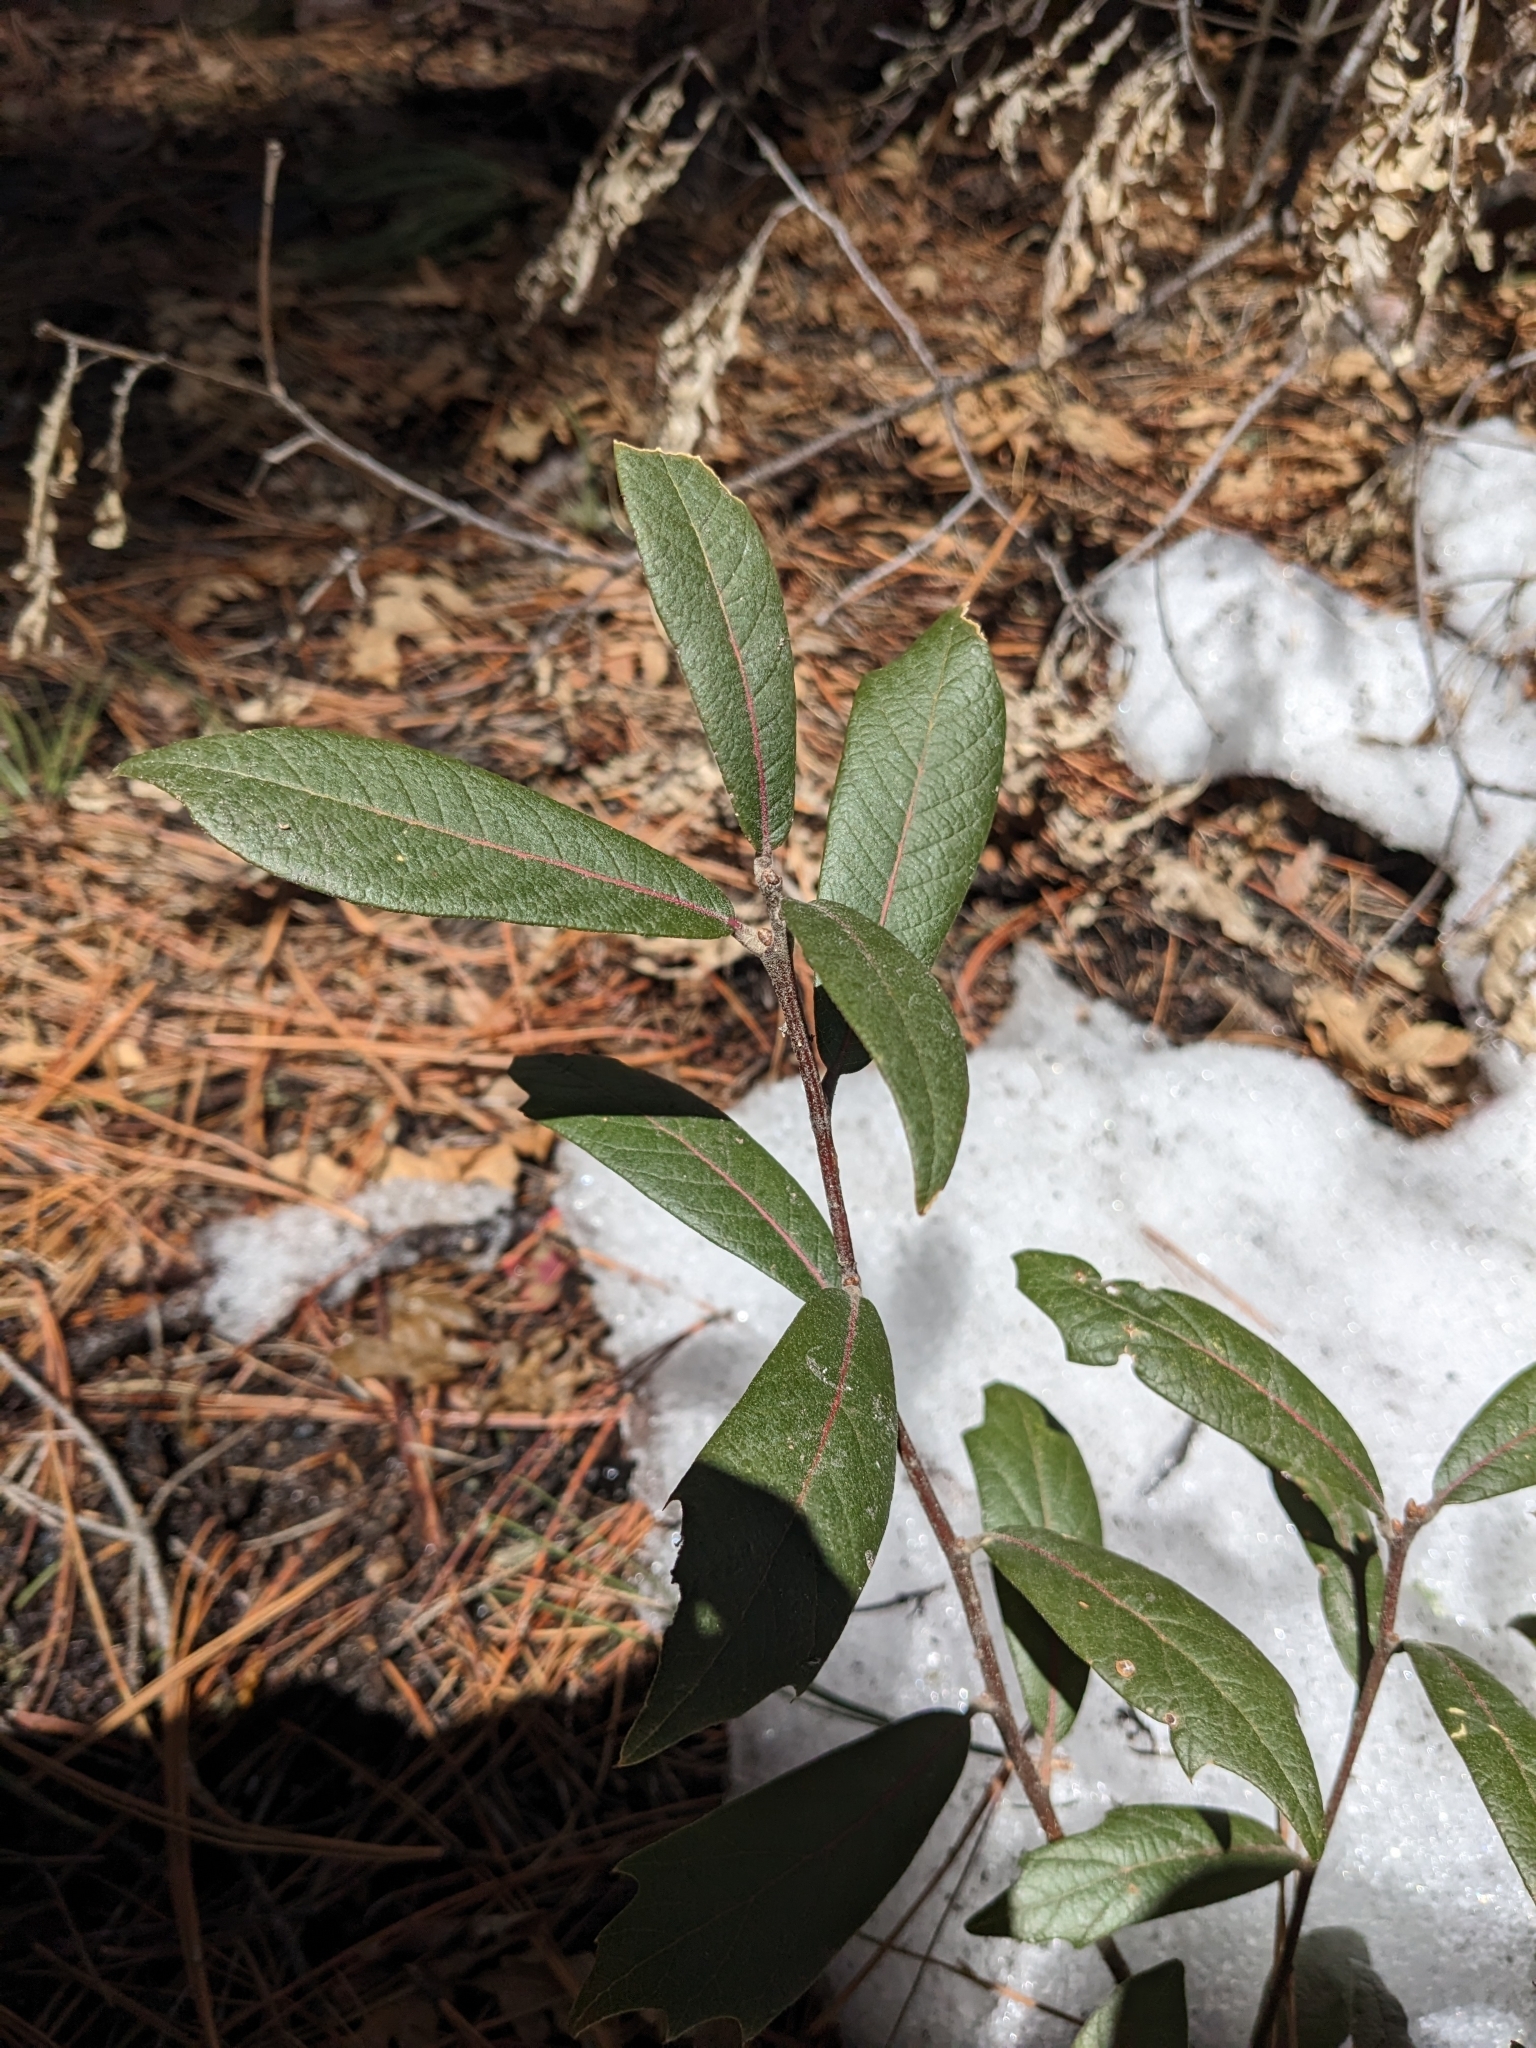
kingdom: Plantae
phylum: Tracheophyta
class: Magnoliopsida
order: Fagales
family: Fagaceae
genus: Quercus
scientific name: Quercus hypoleucoides
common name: Silverleaf oak
